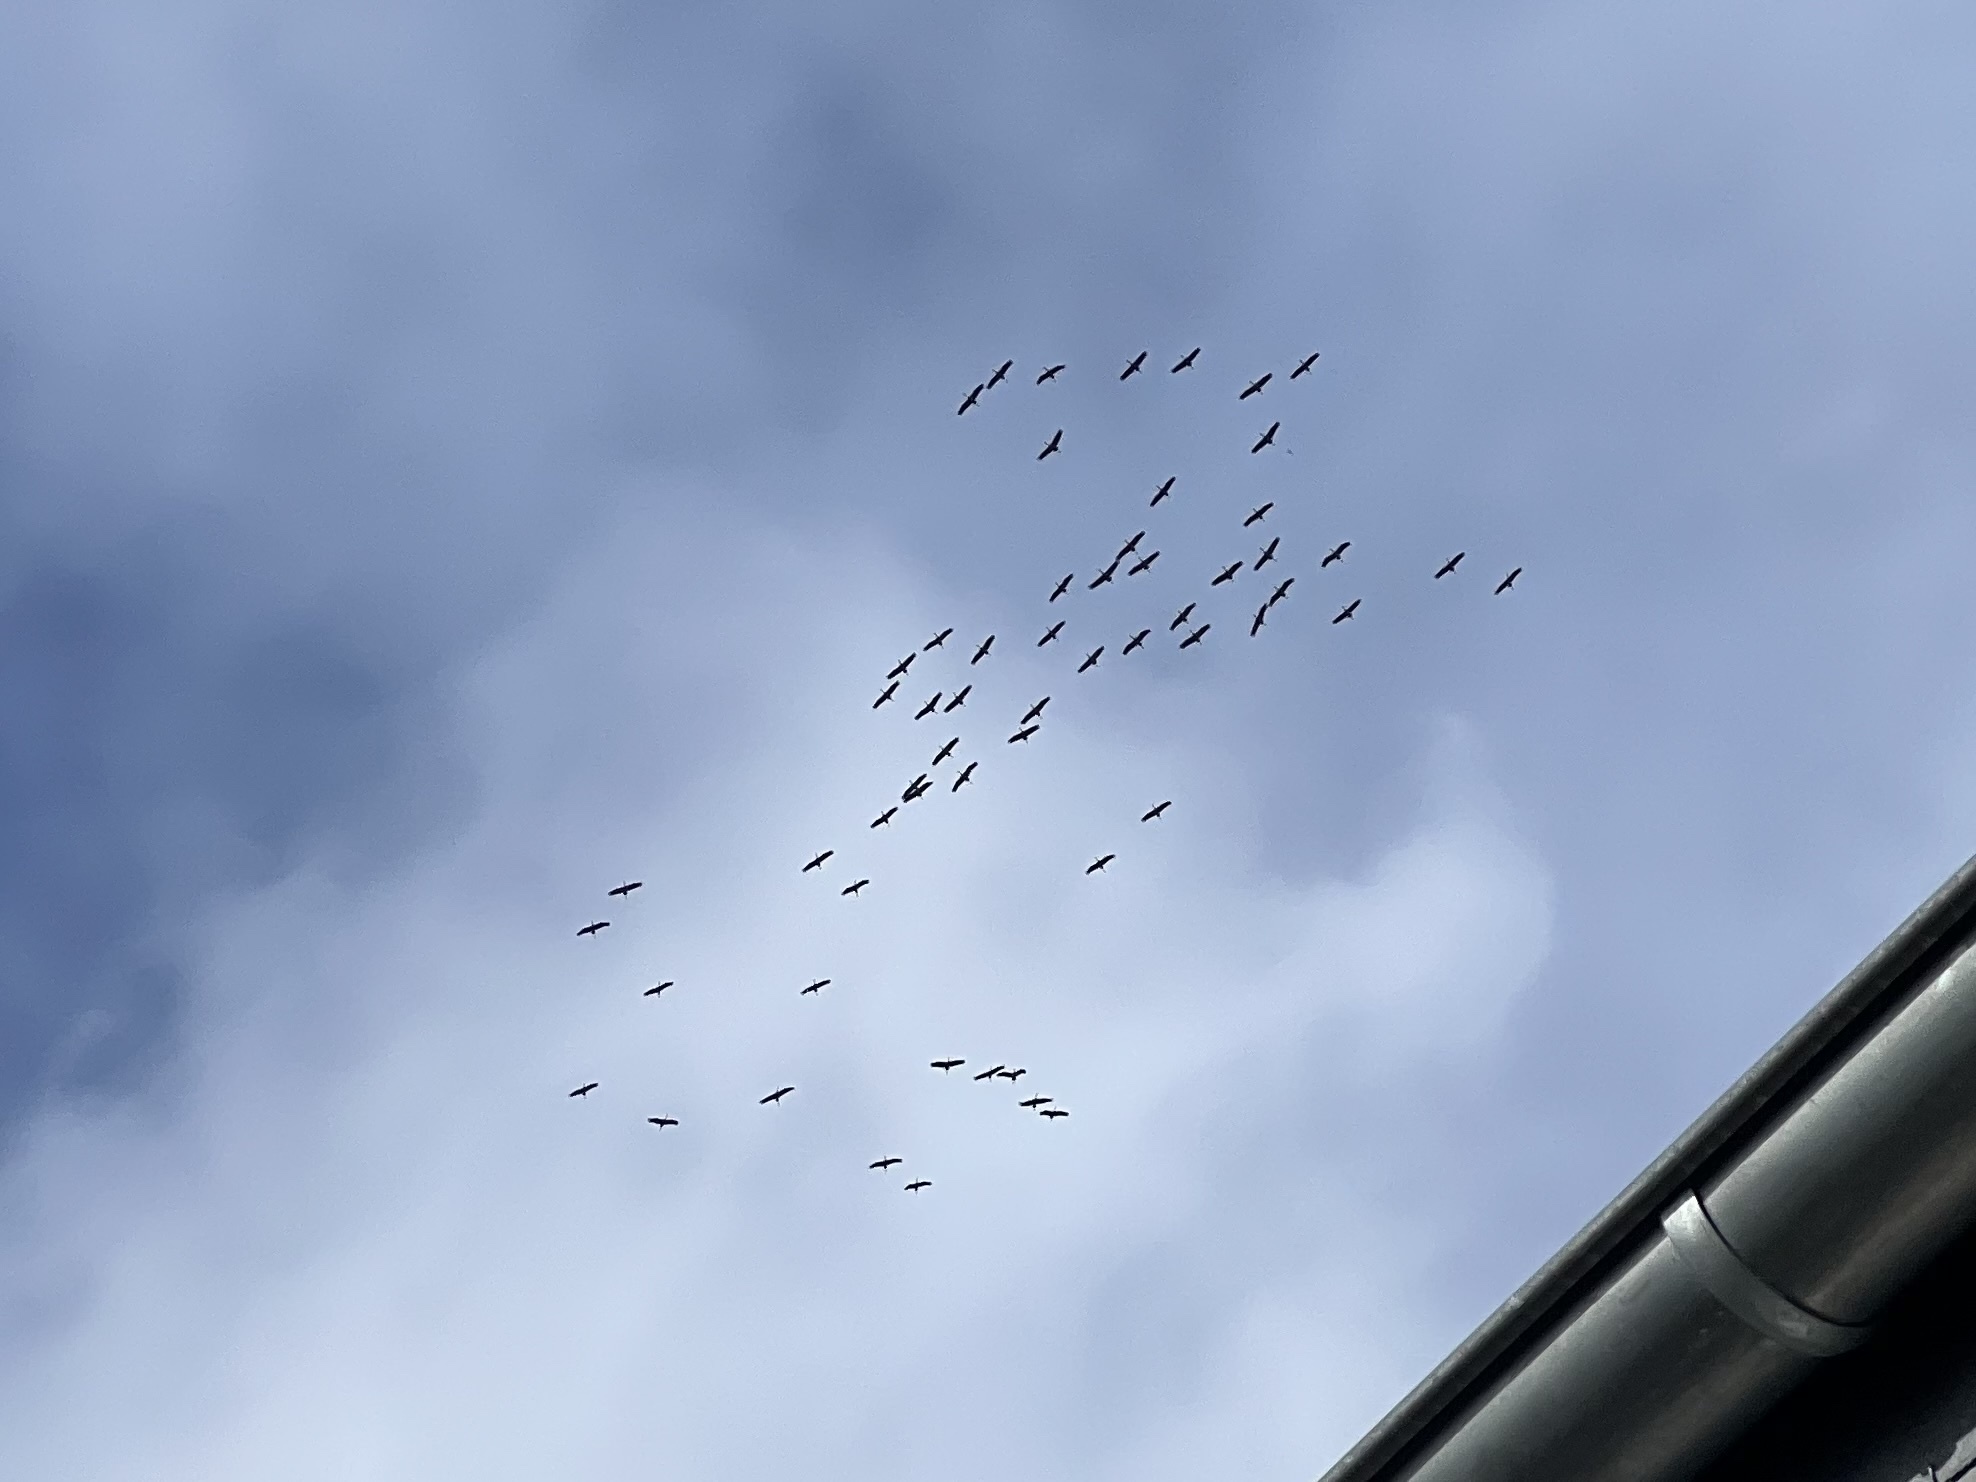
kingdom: Animalia
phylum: Chordata
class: Aves
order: Gruiformes
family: Gruidae
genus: Grus
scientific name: Grus grus
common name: Common crane
